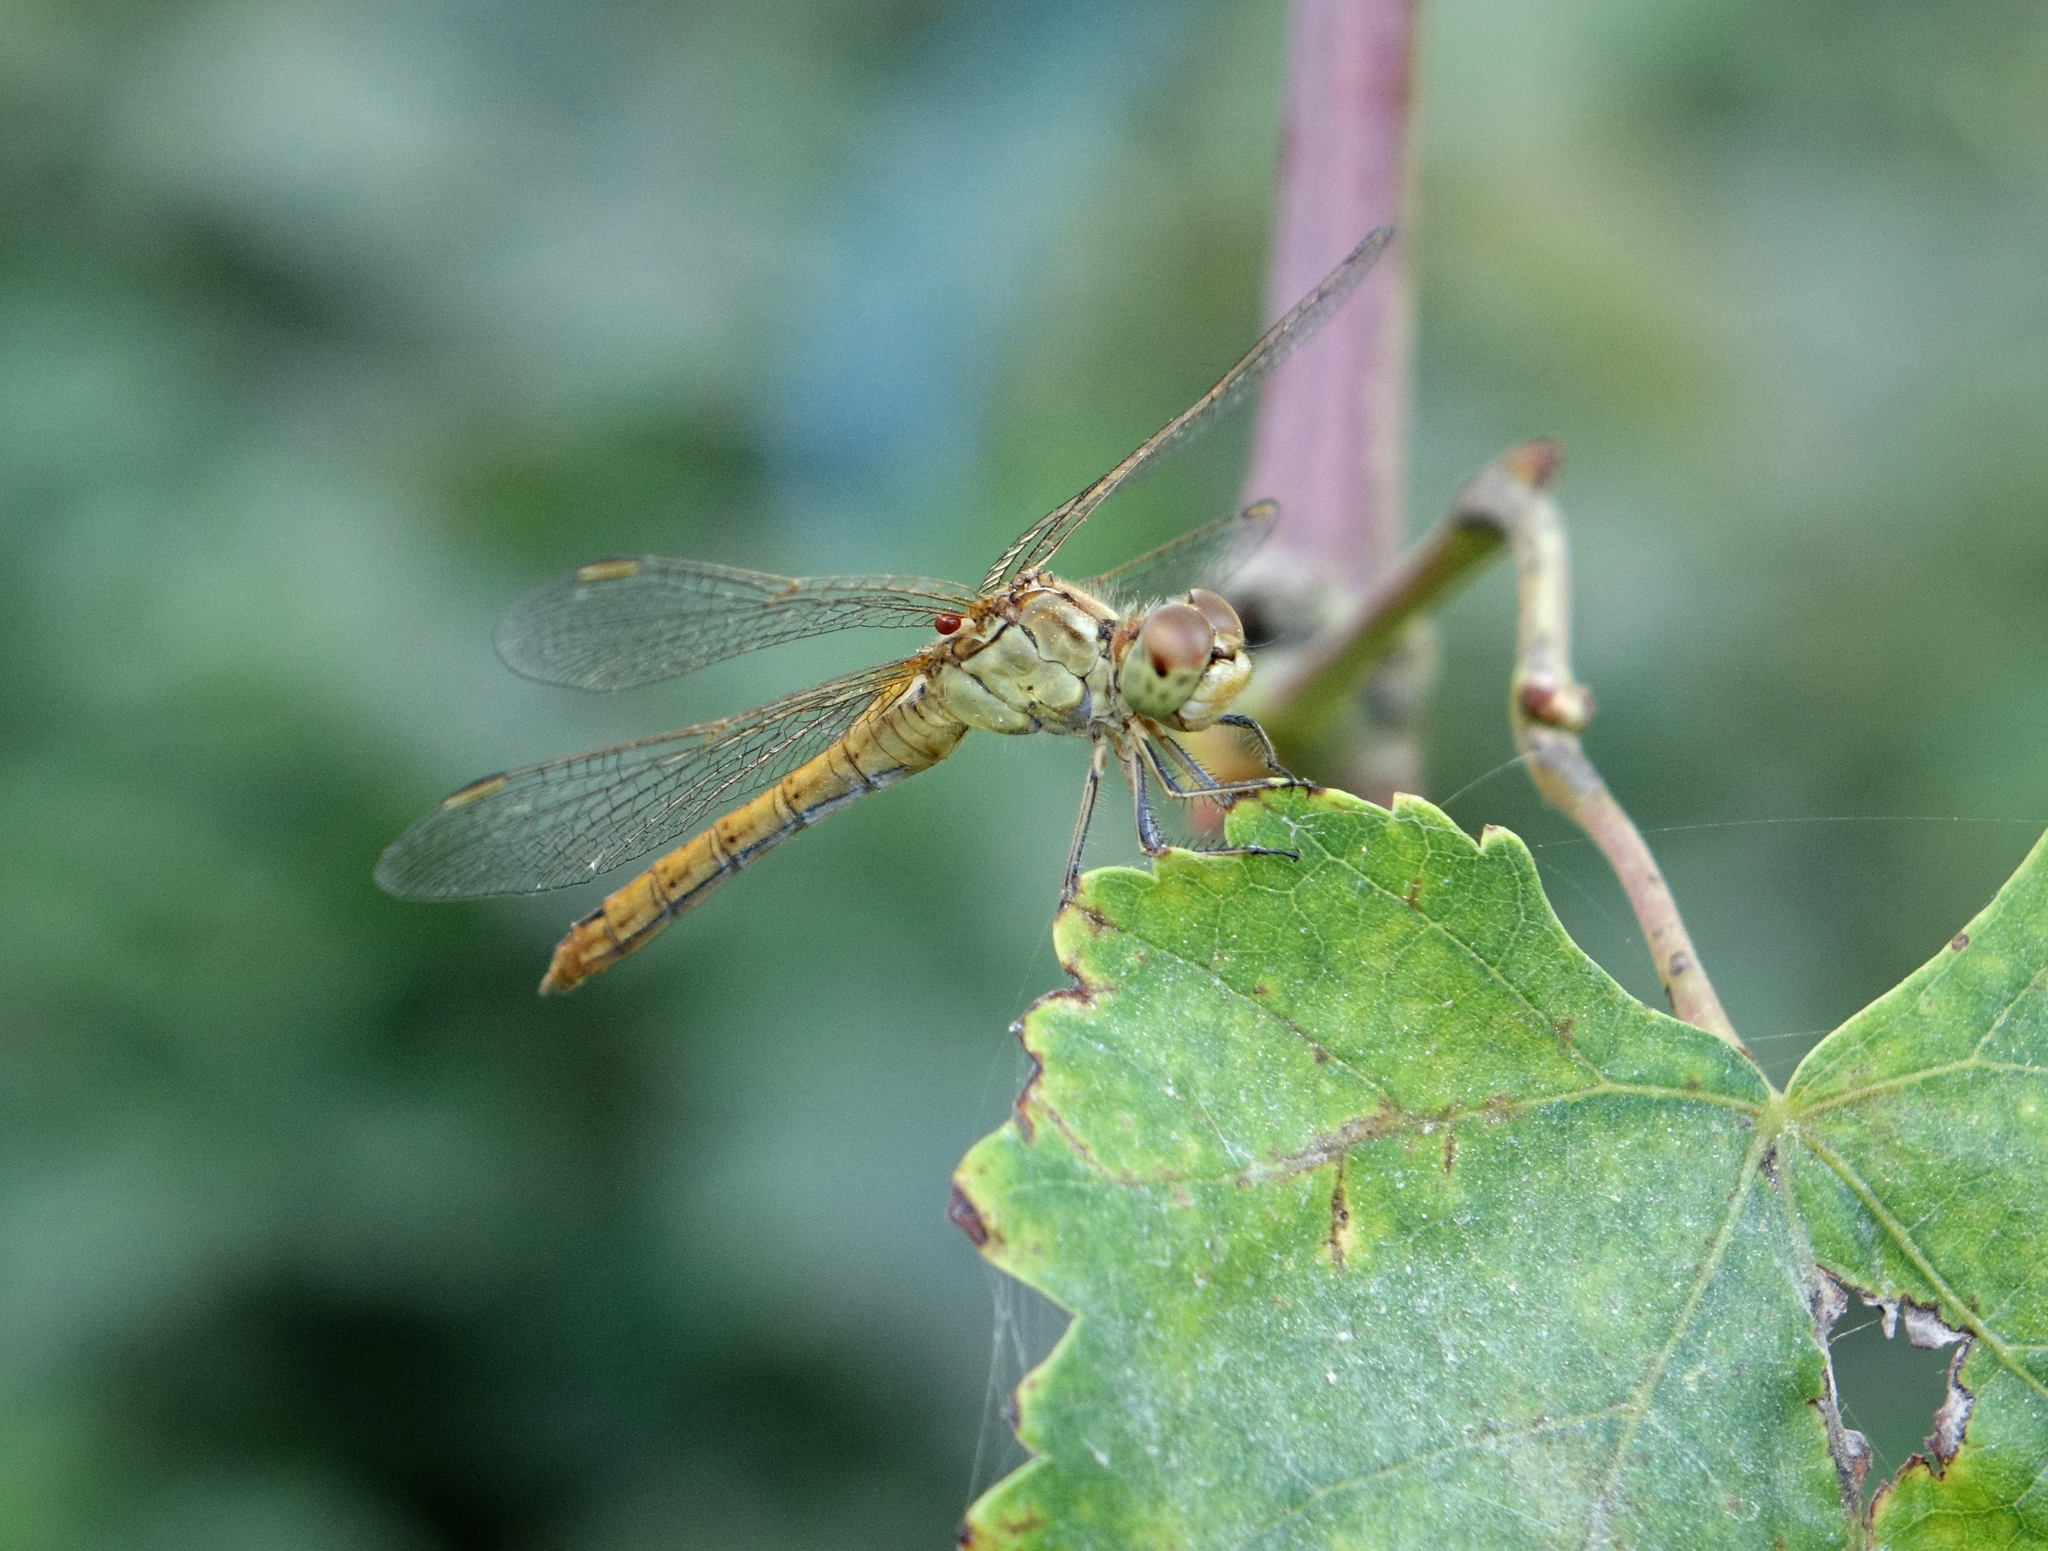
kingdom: Animalia
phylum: Arthropoda
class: Insecta
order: Odonata
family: Libellulidae
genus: Sympetrum
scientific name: Sympetrum meridionale
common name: Southern darter
